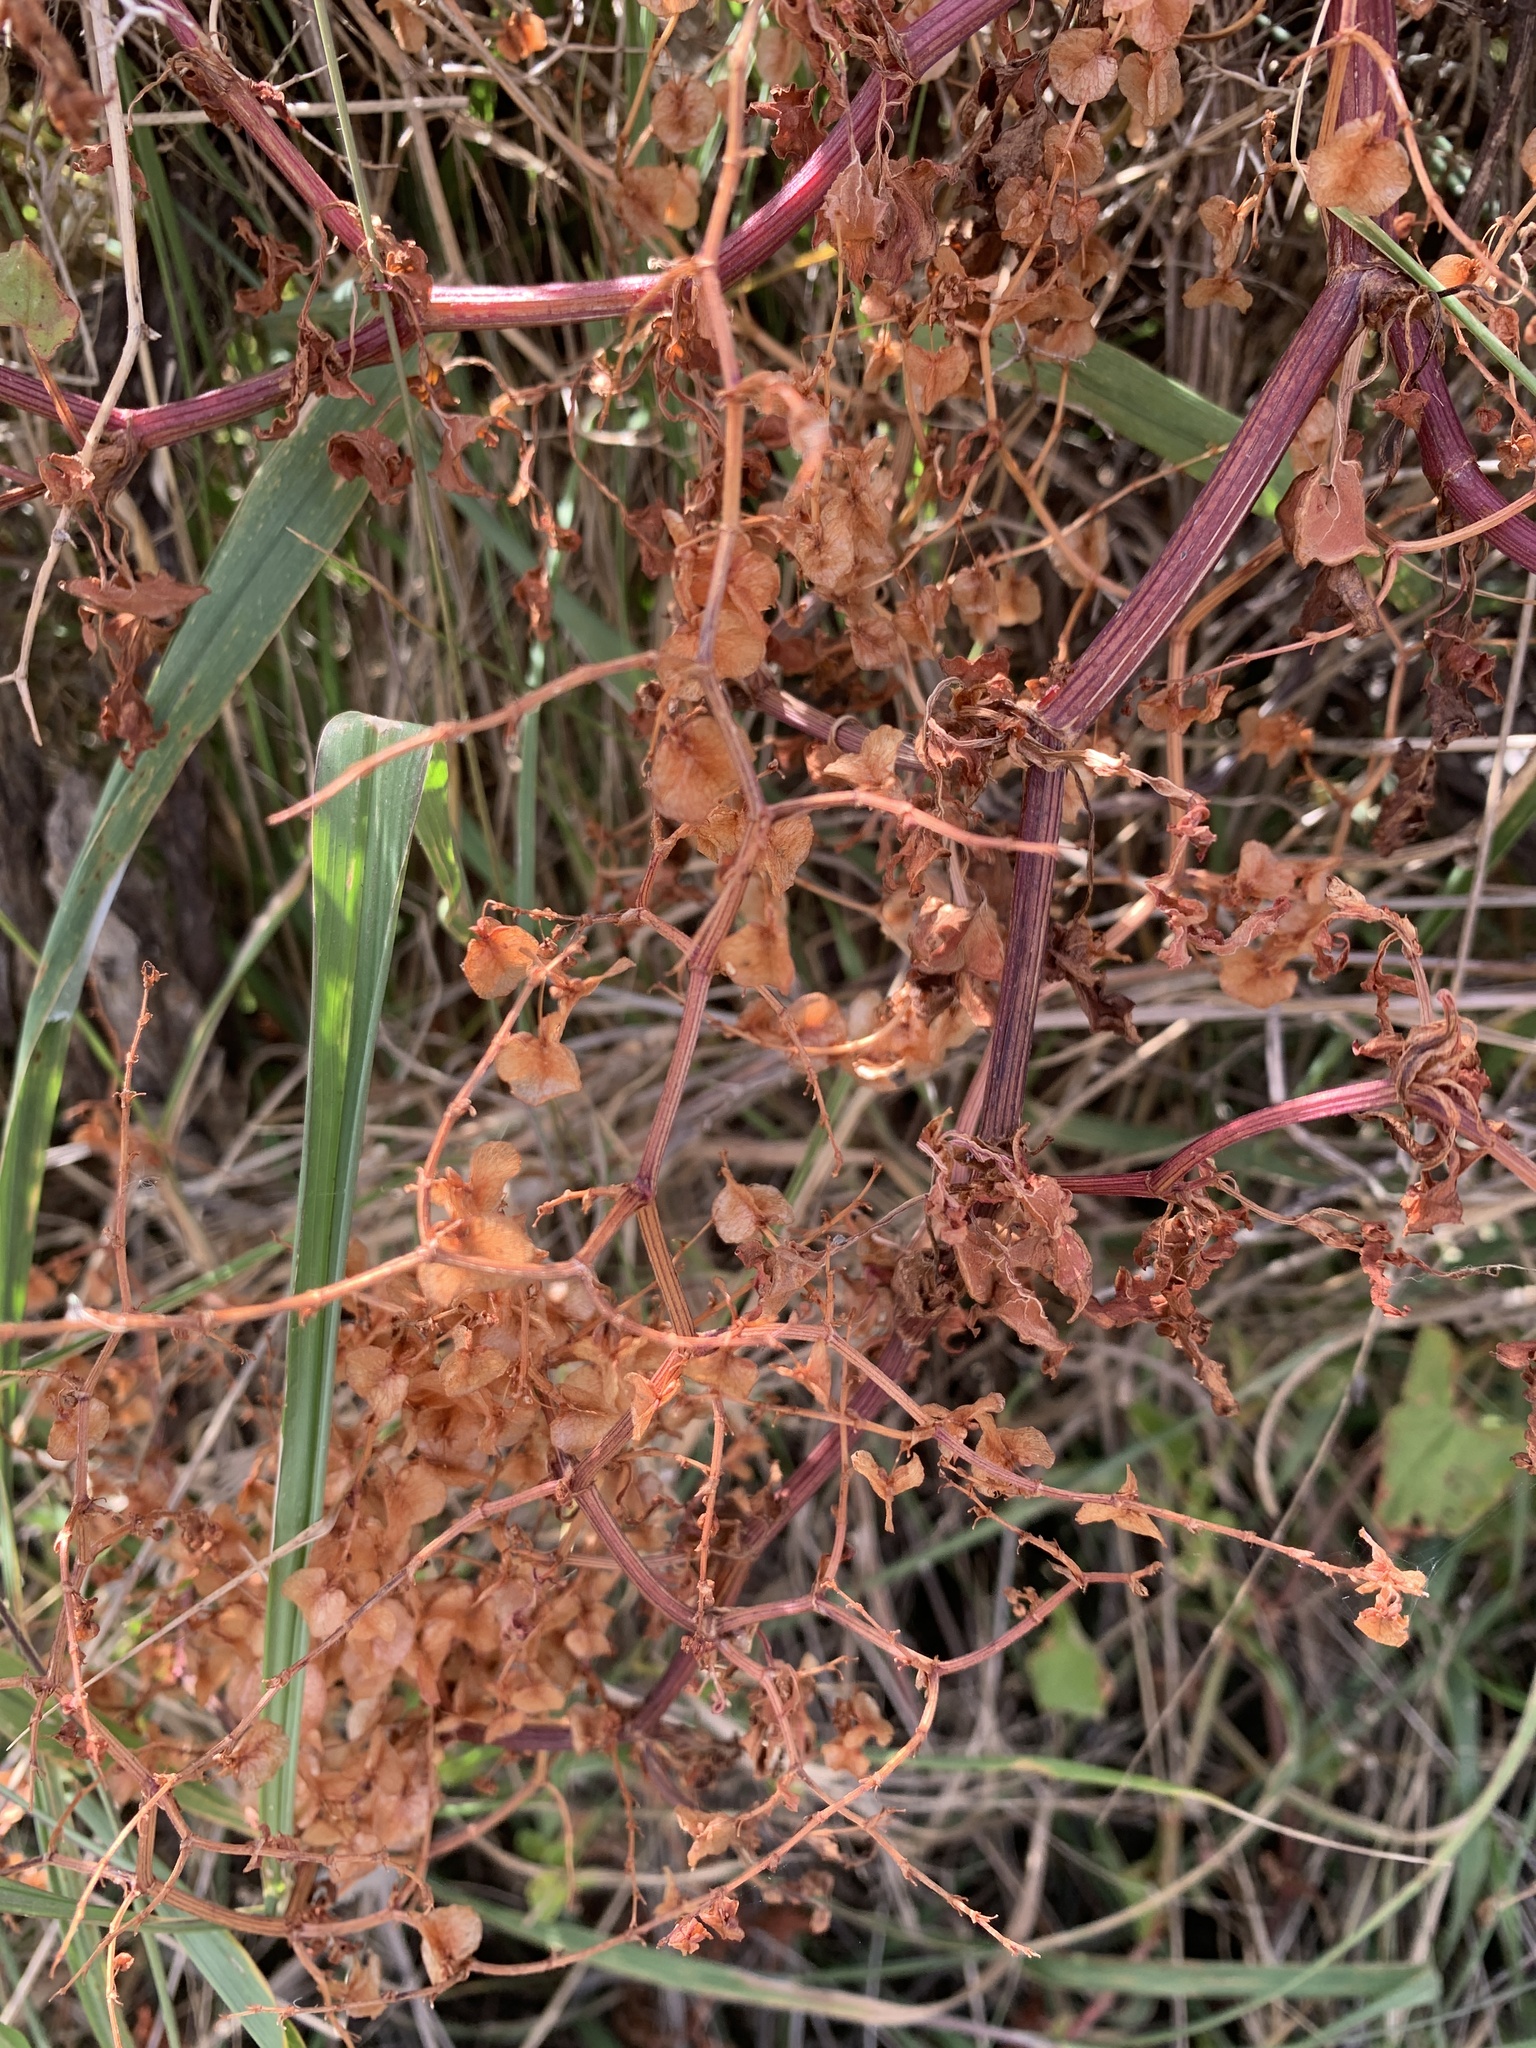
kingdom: Plantae
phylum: Tracheophyta
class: Magnoliopsida
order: Caryophyllales
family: Polygonaceae
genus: Rumex
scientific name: Rumex sagittatus
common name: Climbing dock
